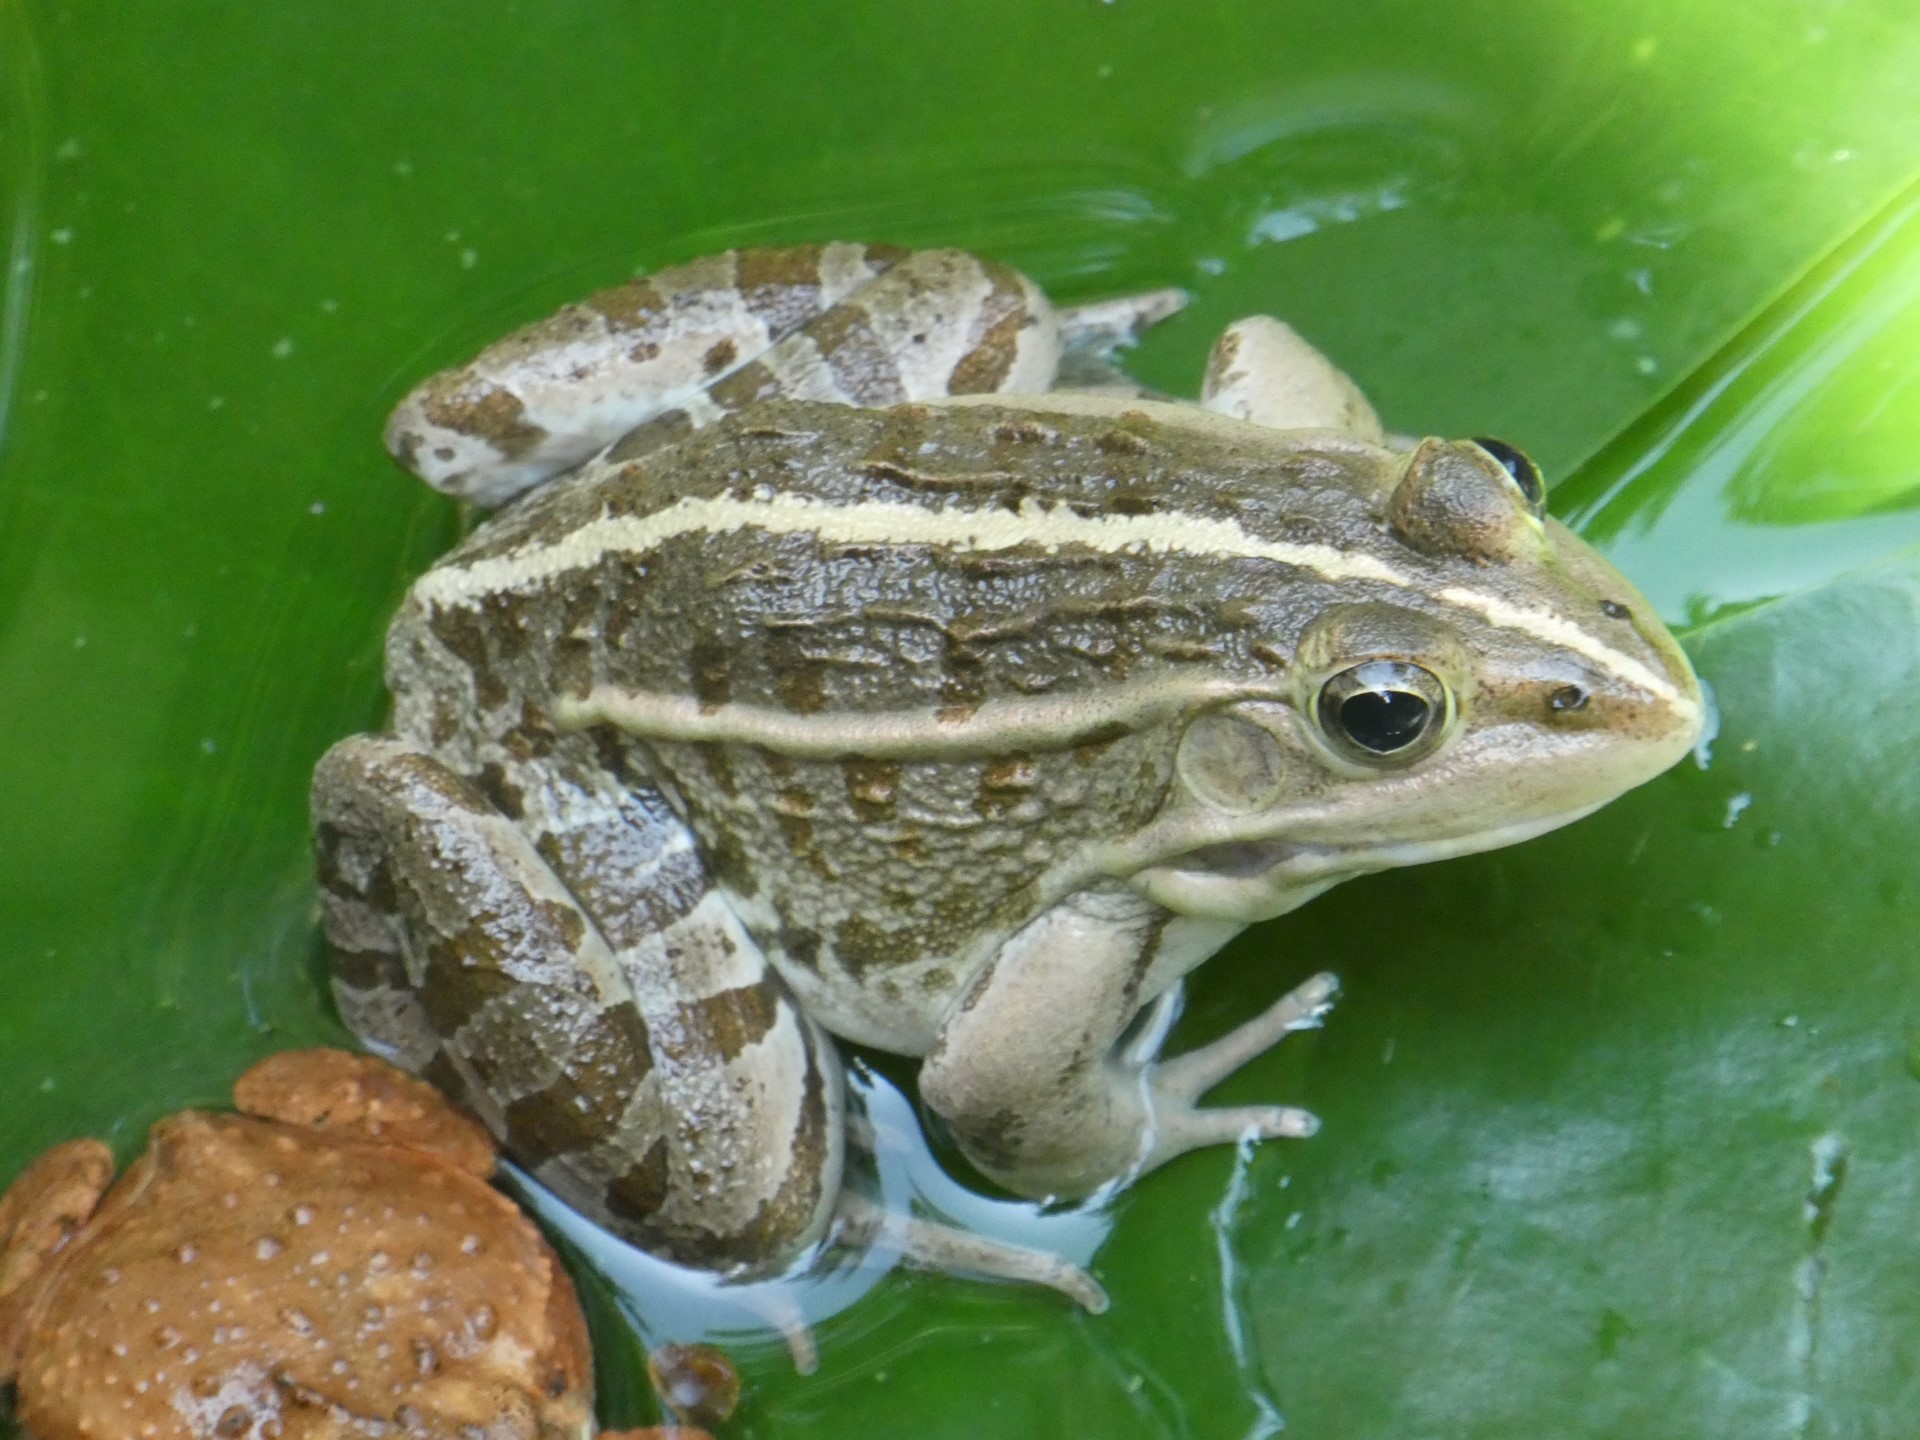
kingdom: Animalia
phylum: Chordata
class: Amphibia
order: Anura
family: Ranidae
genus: Pelophylax
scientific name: Pelophylax nigromaculatus
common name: Black-spotted pond frog
